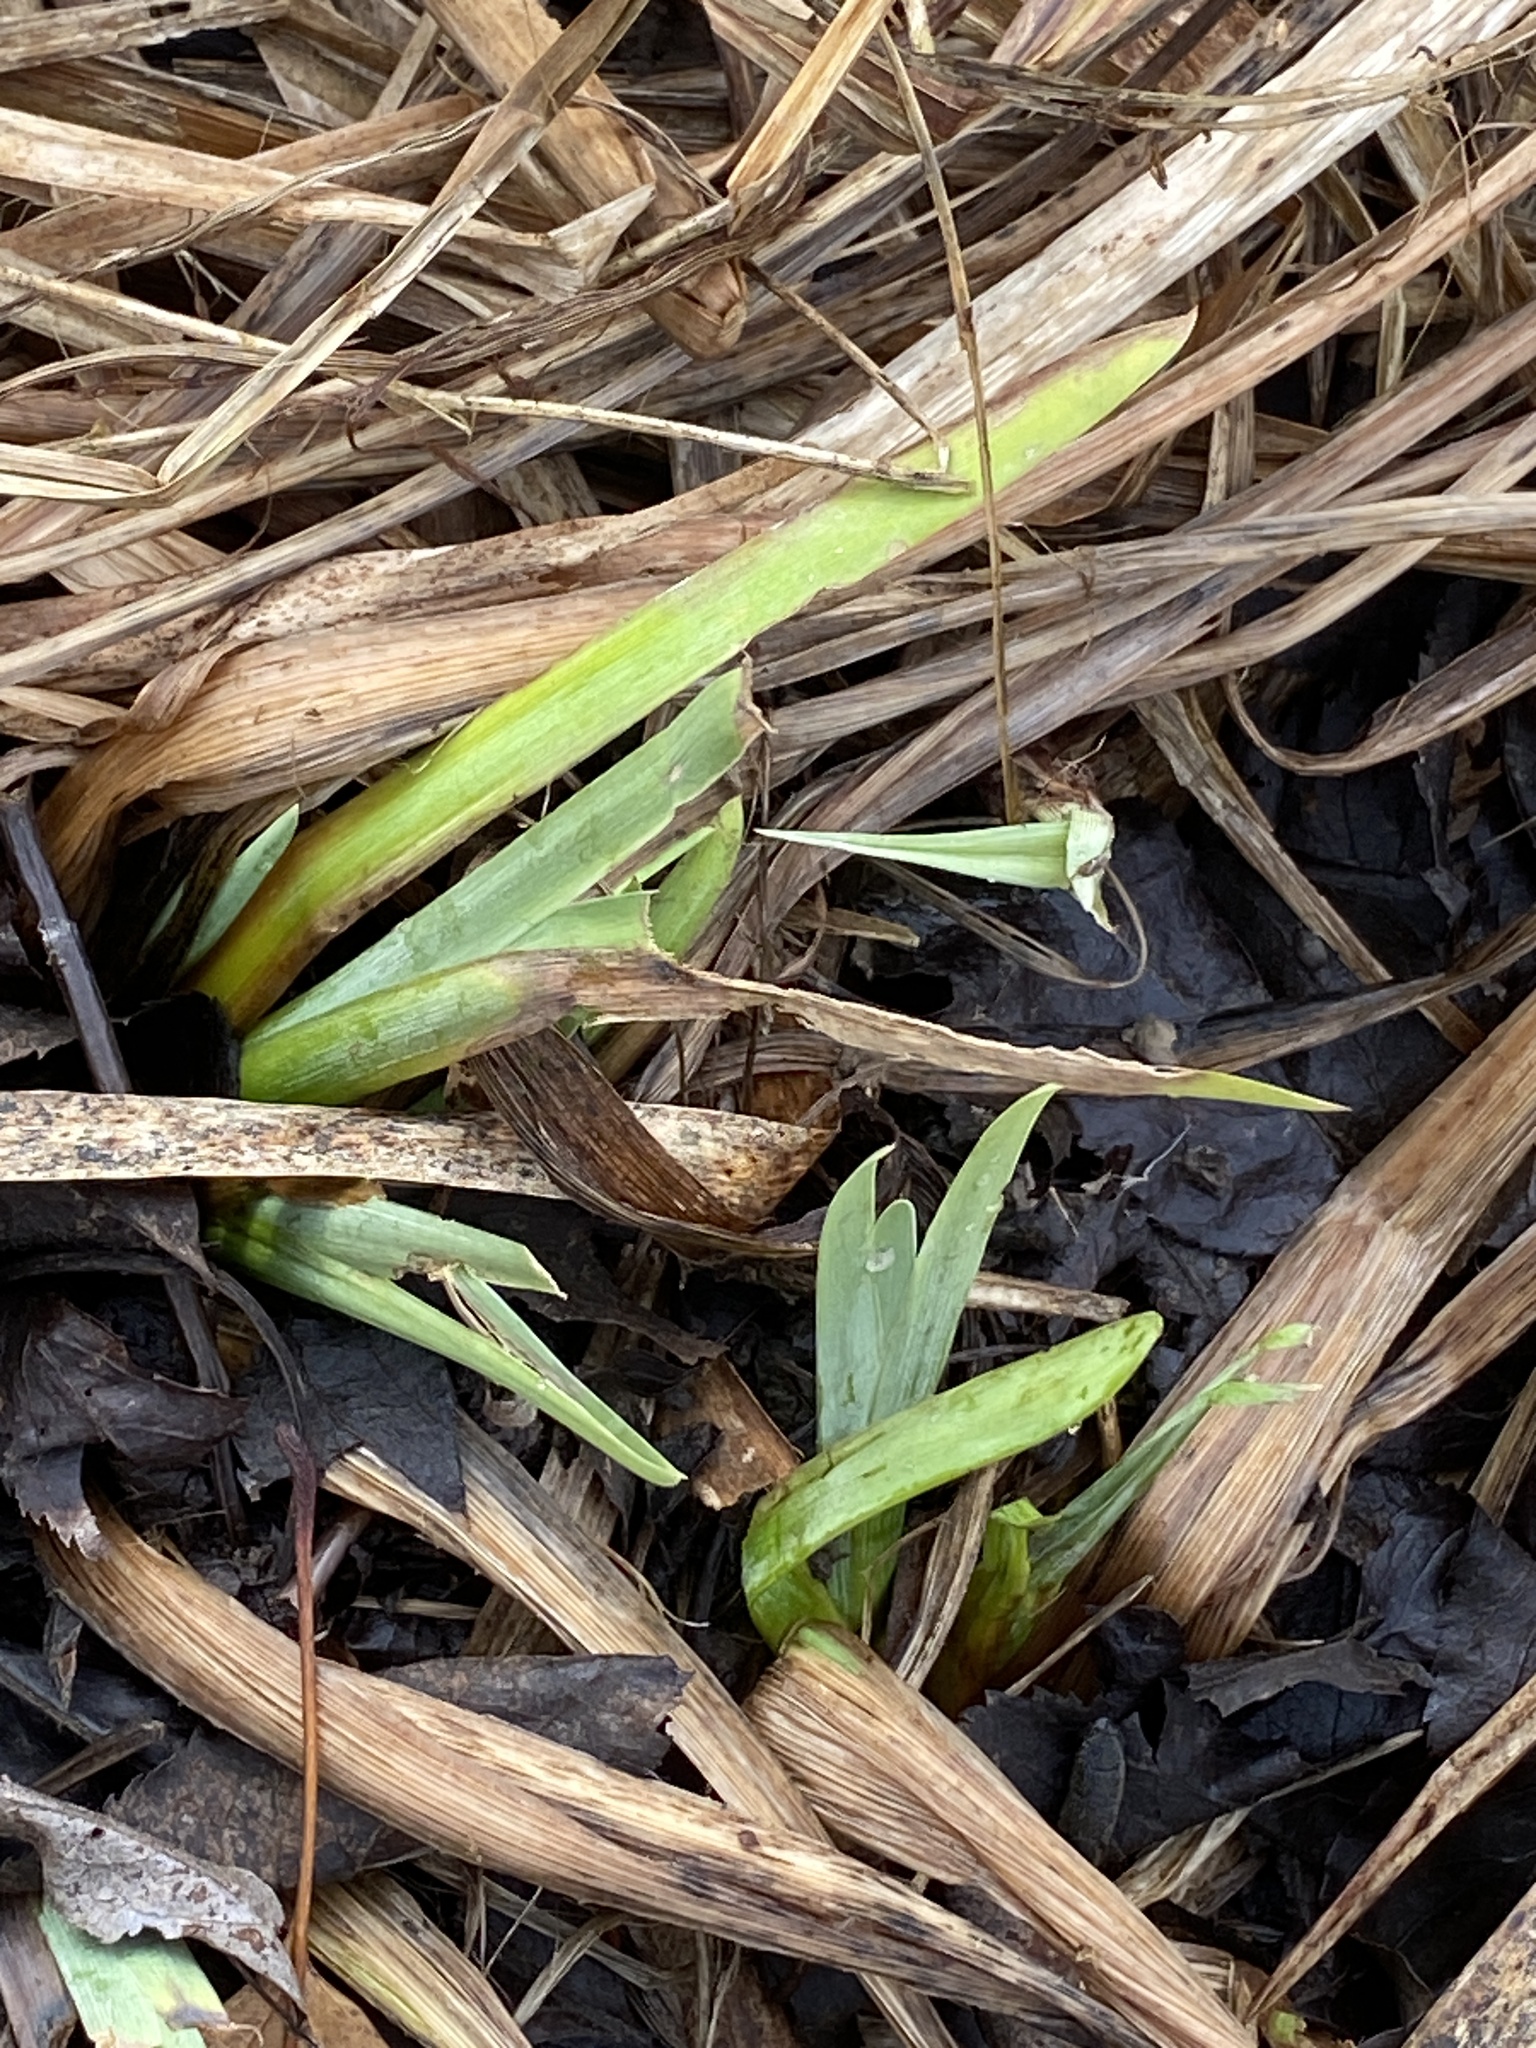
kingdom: Plantae
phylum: Tracheophyta
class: Liliopsida
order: Asparagales
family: Iridaceae
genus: Iris
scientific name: Iris pseudacorus
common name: Yellow flag
